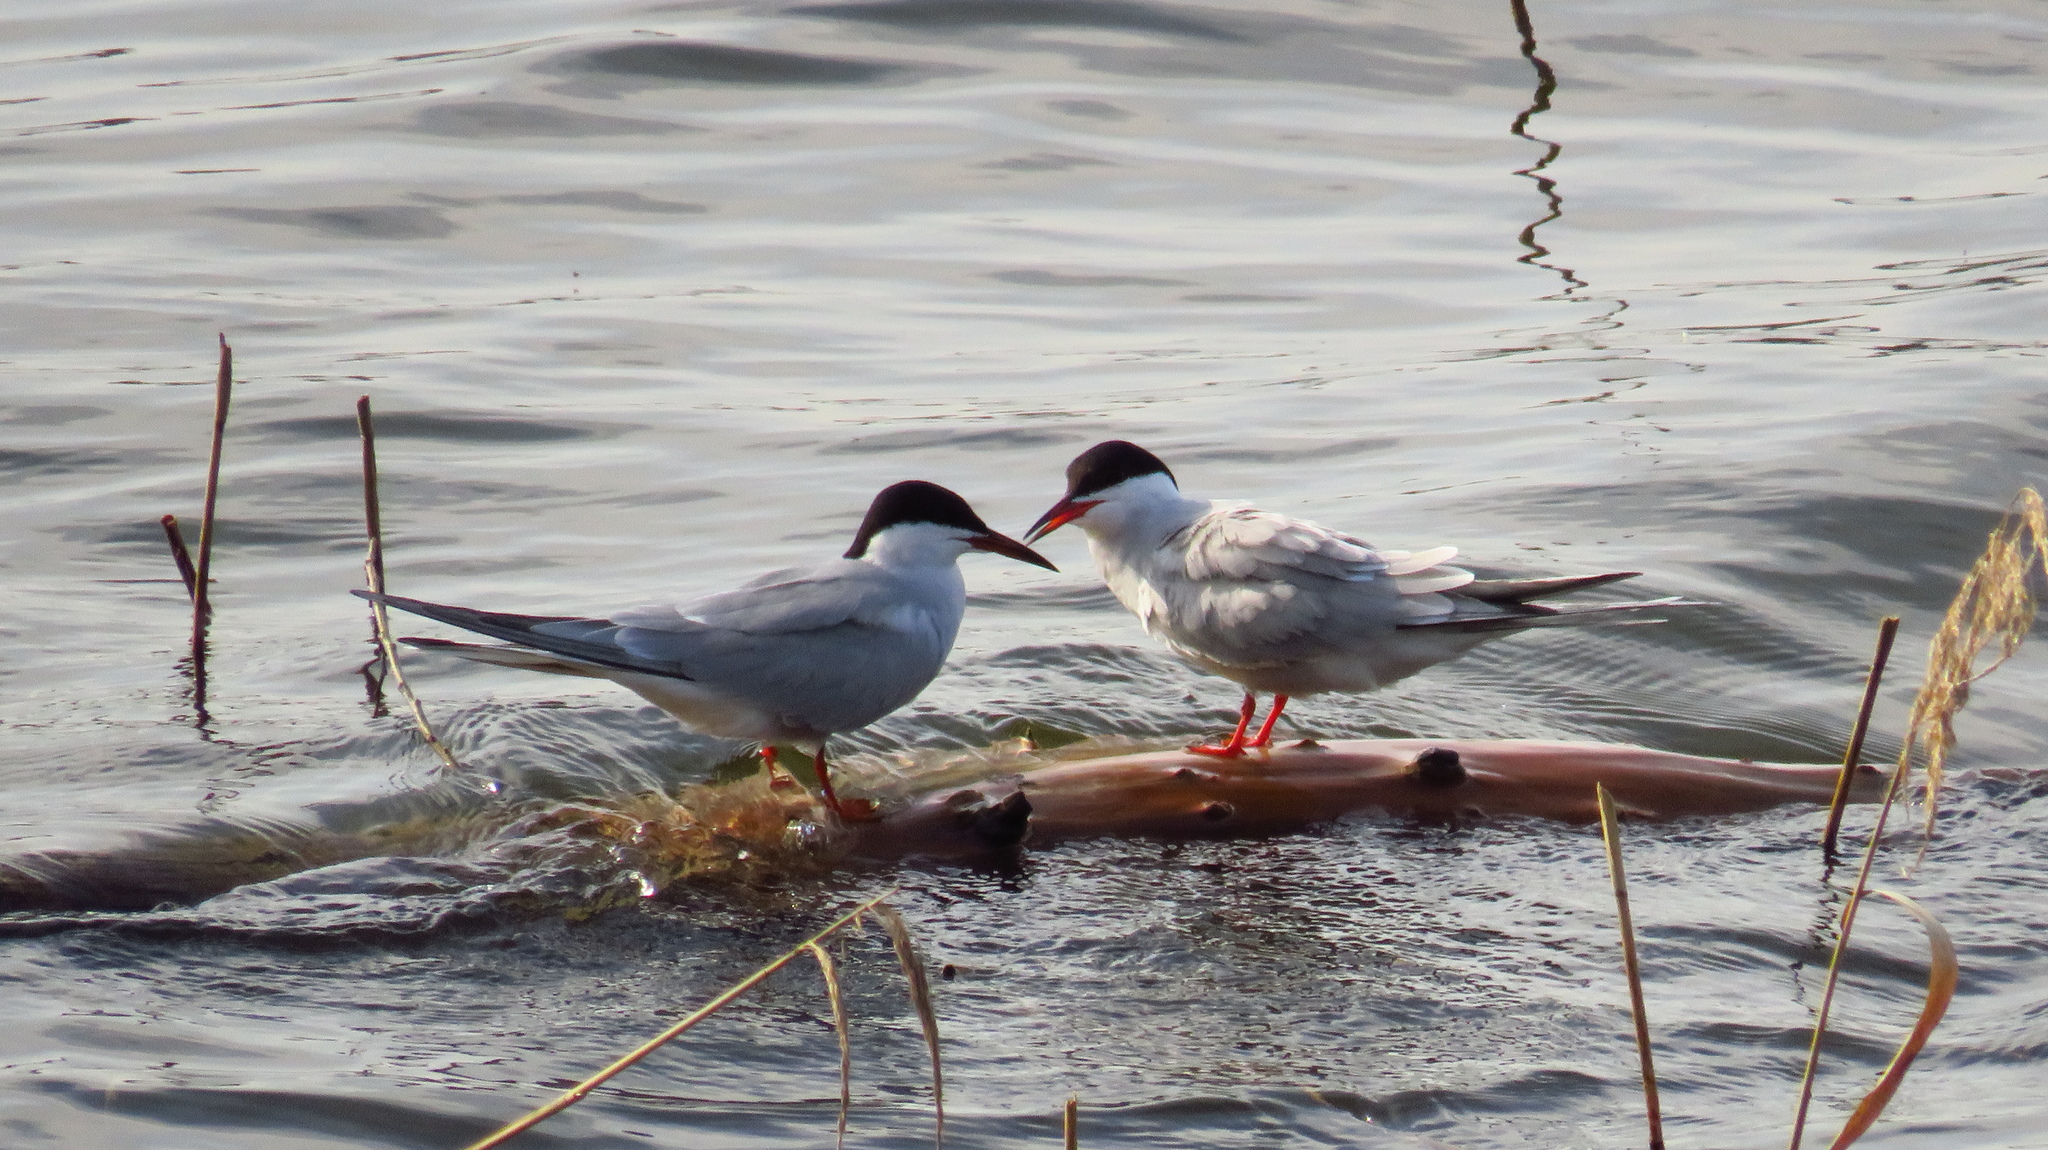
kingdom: Animalia
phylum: Chordata
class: Aves
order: Charadriiformes
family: Laridae
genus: Sterna
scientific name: Sterna hirundo
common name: Common tern
